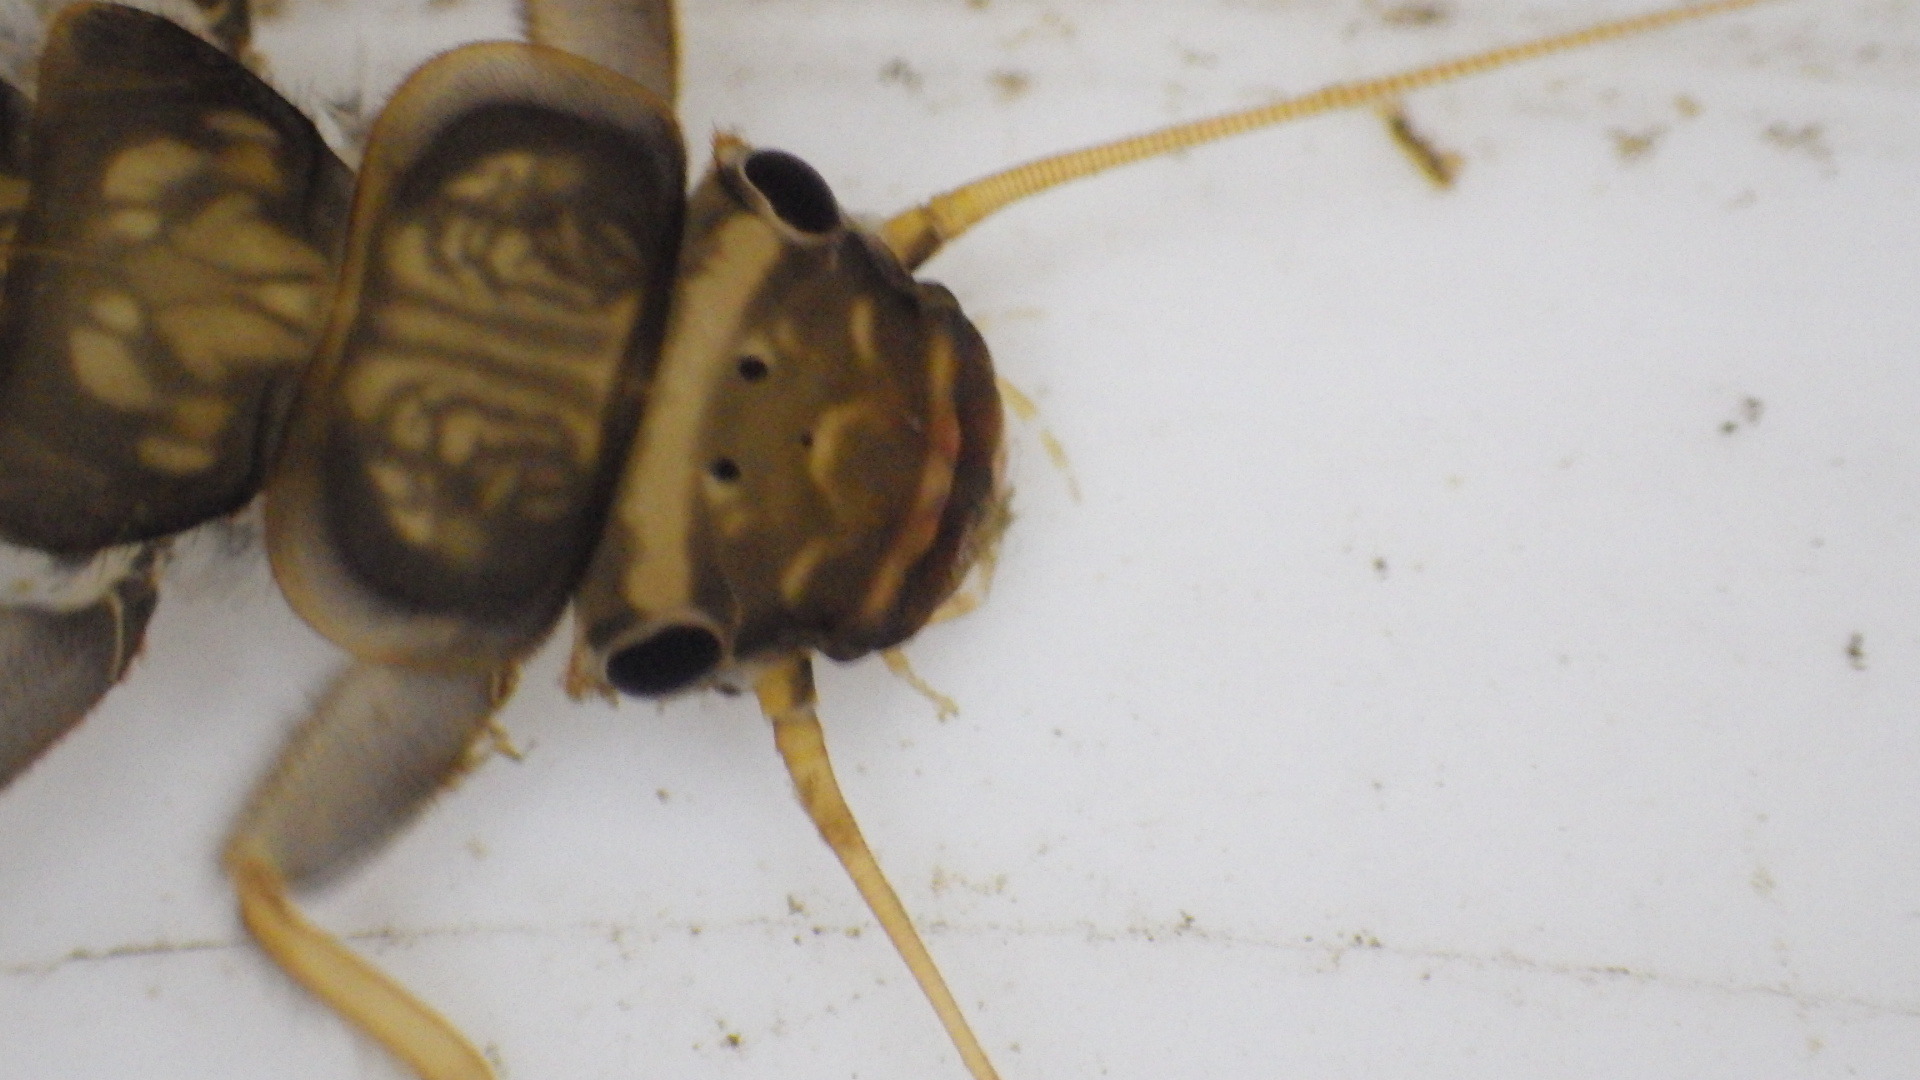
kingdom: Animalia
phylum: Arthropoda
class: Insecta
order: Plecoptera
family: Perlidae
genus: Acroneuria
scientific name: Acroneuria abnormis
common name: Common stone
